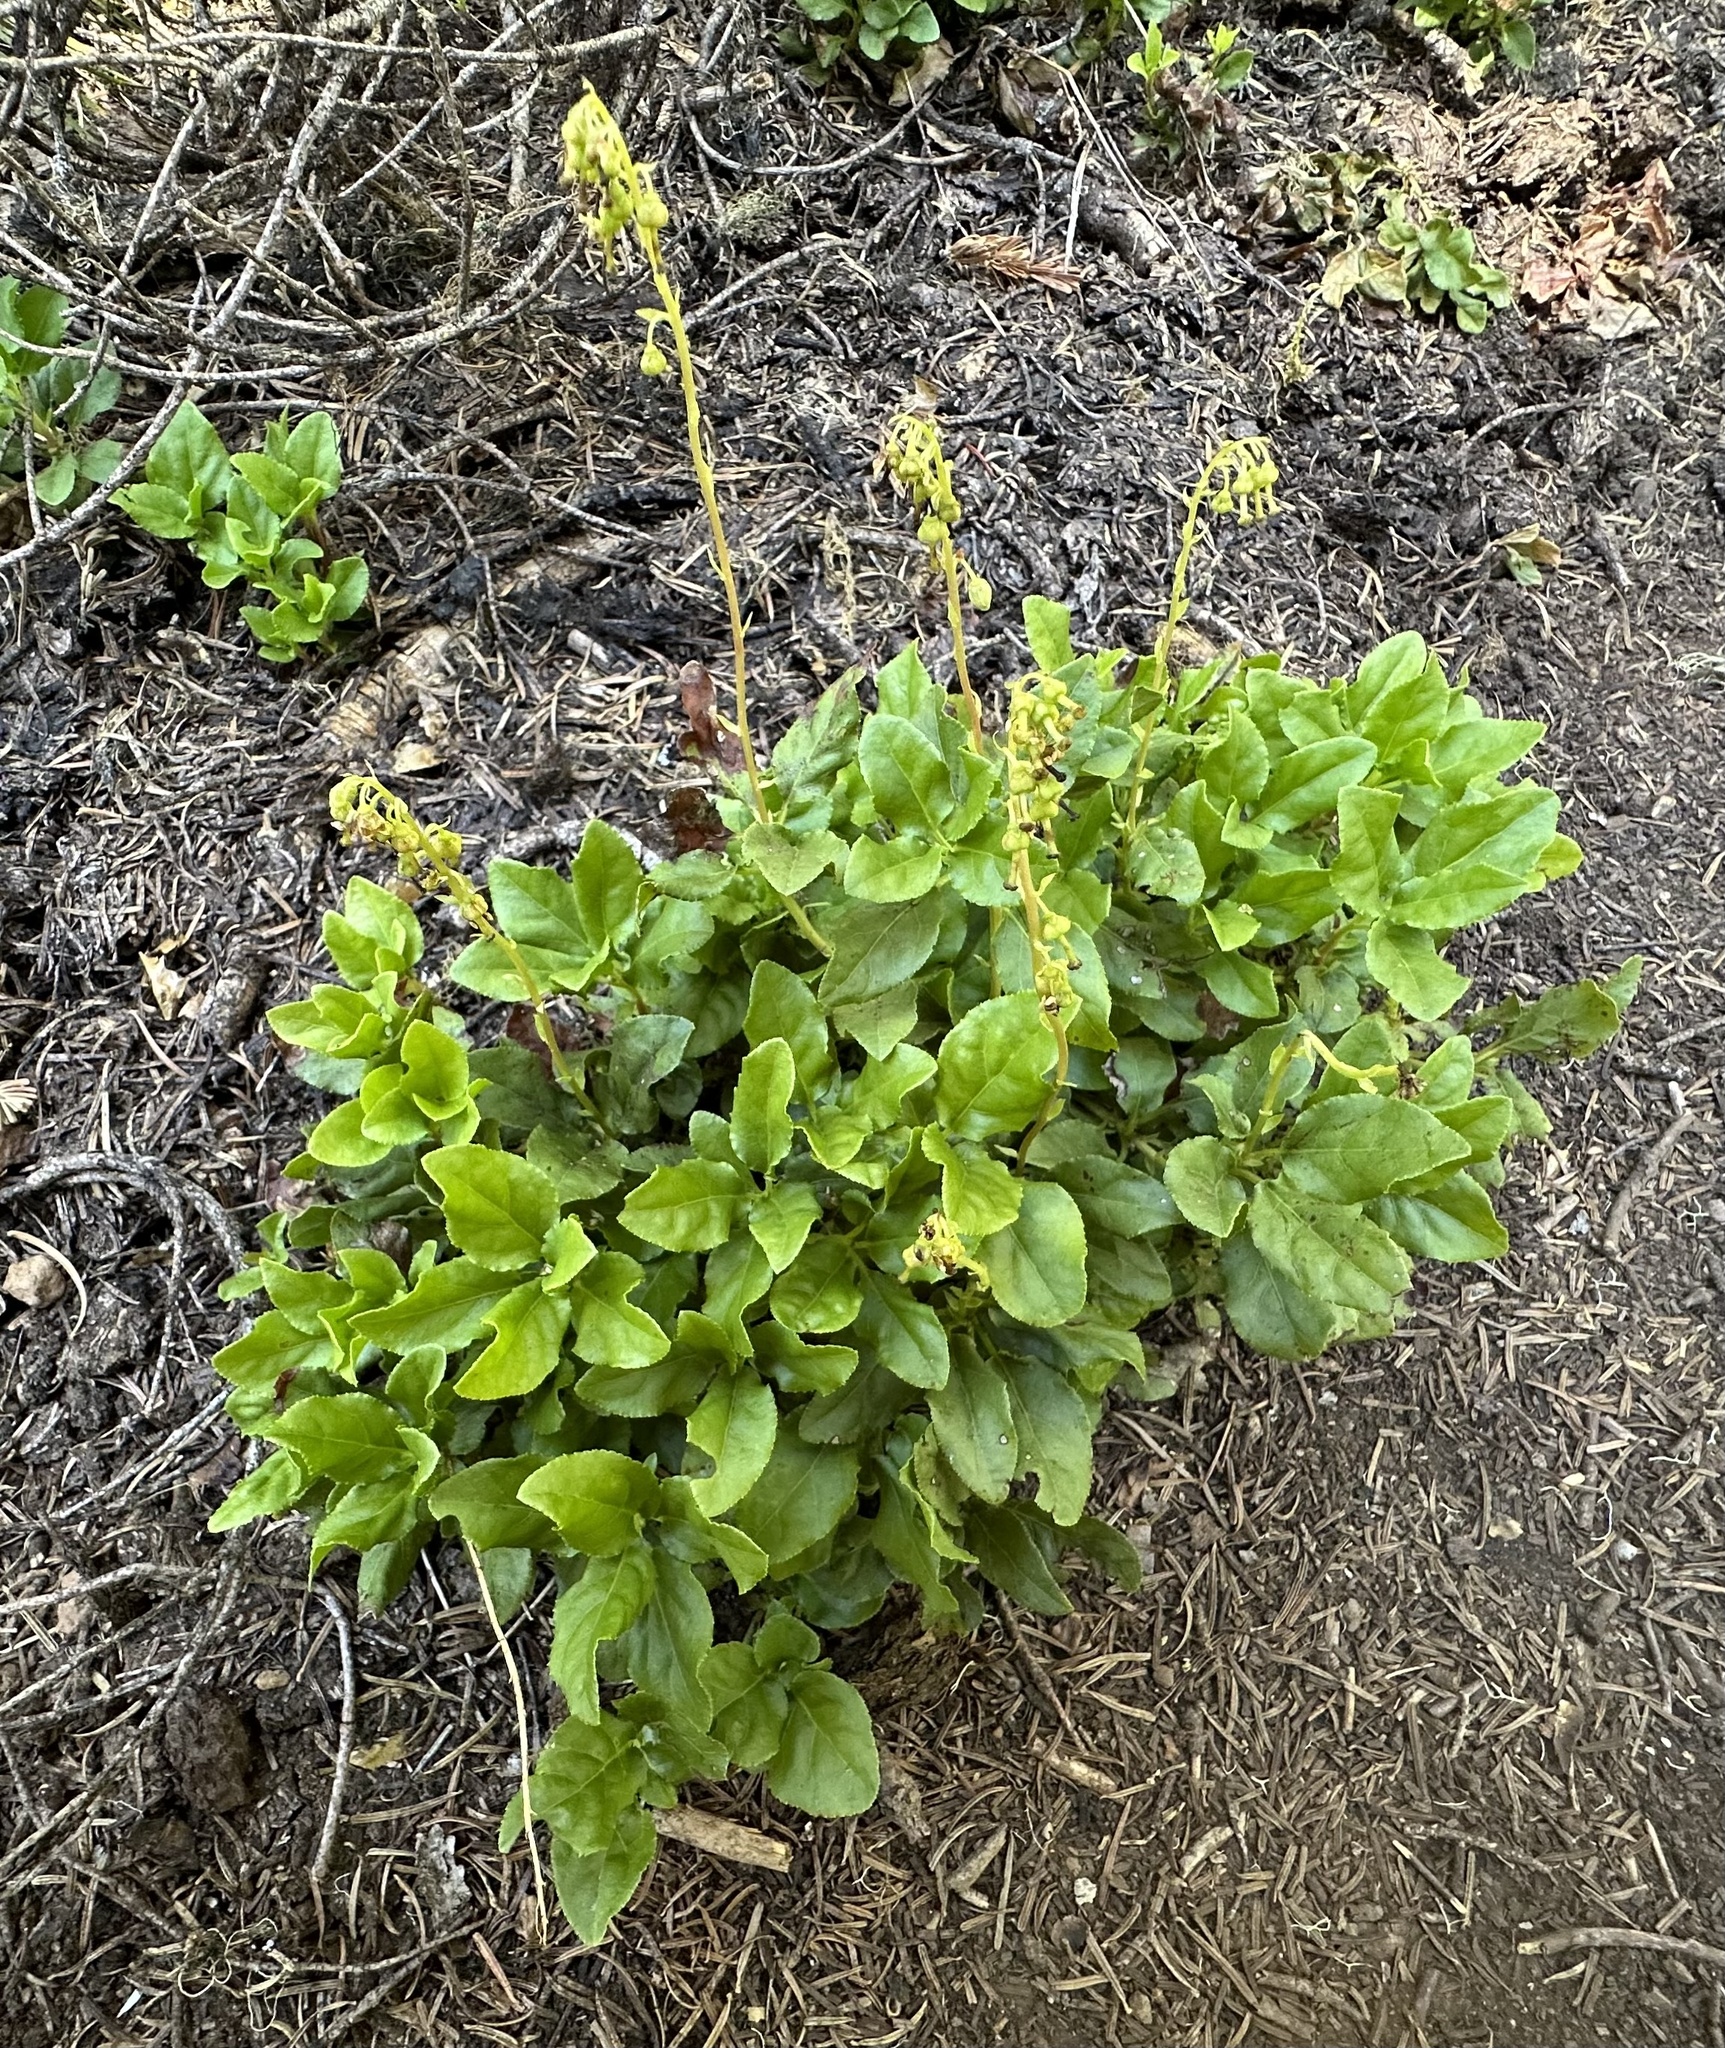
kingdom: Plantae
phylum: Tracheophyta
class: Magnoliopsida
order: Ericales
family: Ericaceae
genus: Orthilia
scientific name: Orthilia secunda
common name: One-sided orthilia
